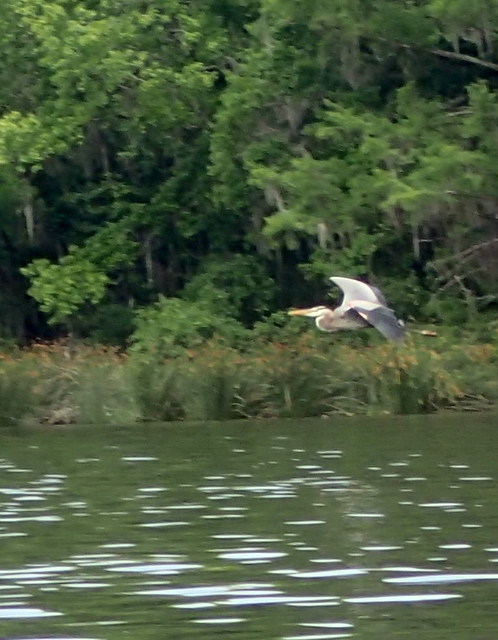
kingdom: Animalia
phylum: Chordata
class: Aves
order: Pelecaniformes
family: Ardeidae
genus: Ardea
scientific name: Ardea herodias
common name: Great blue heron
